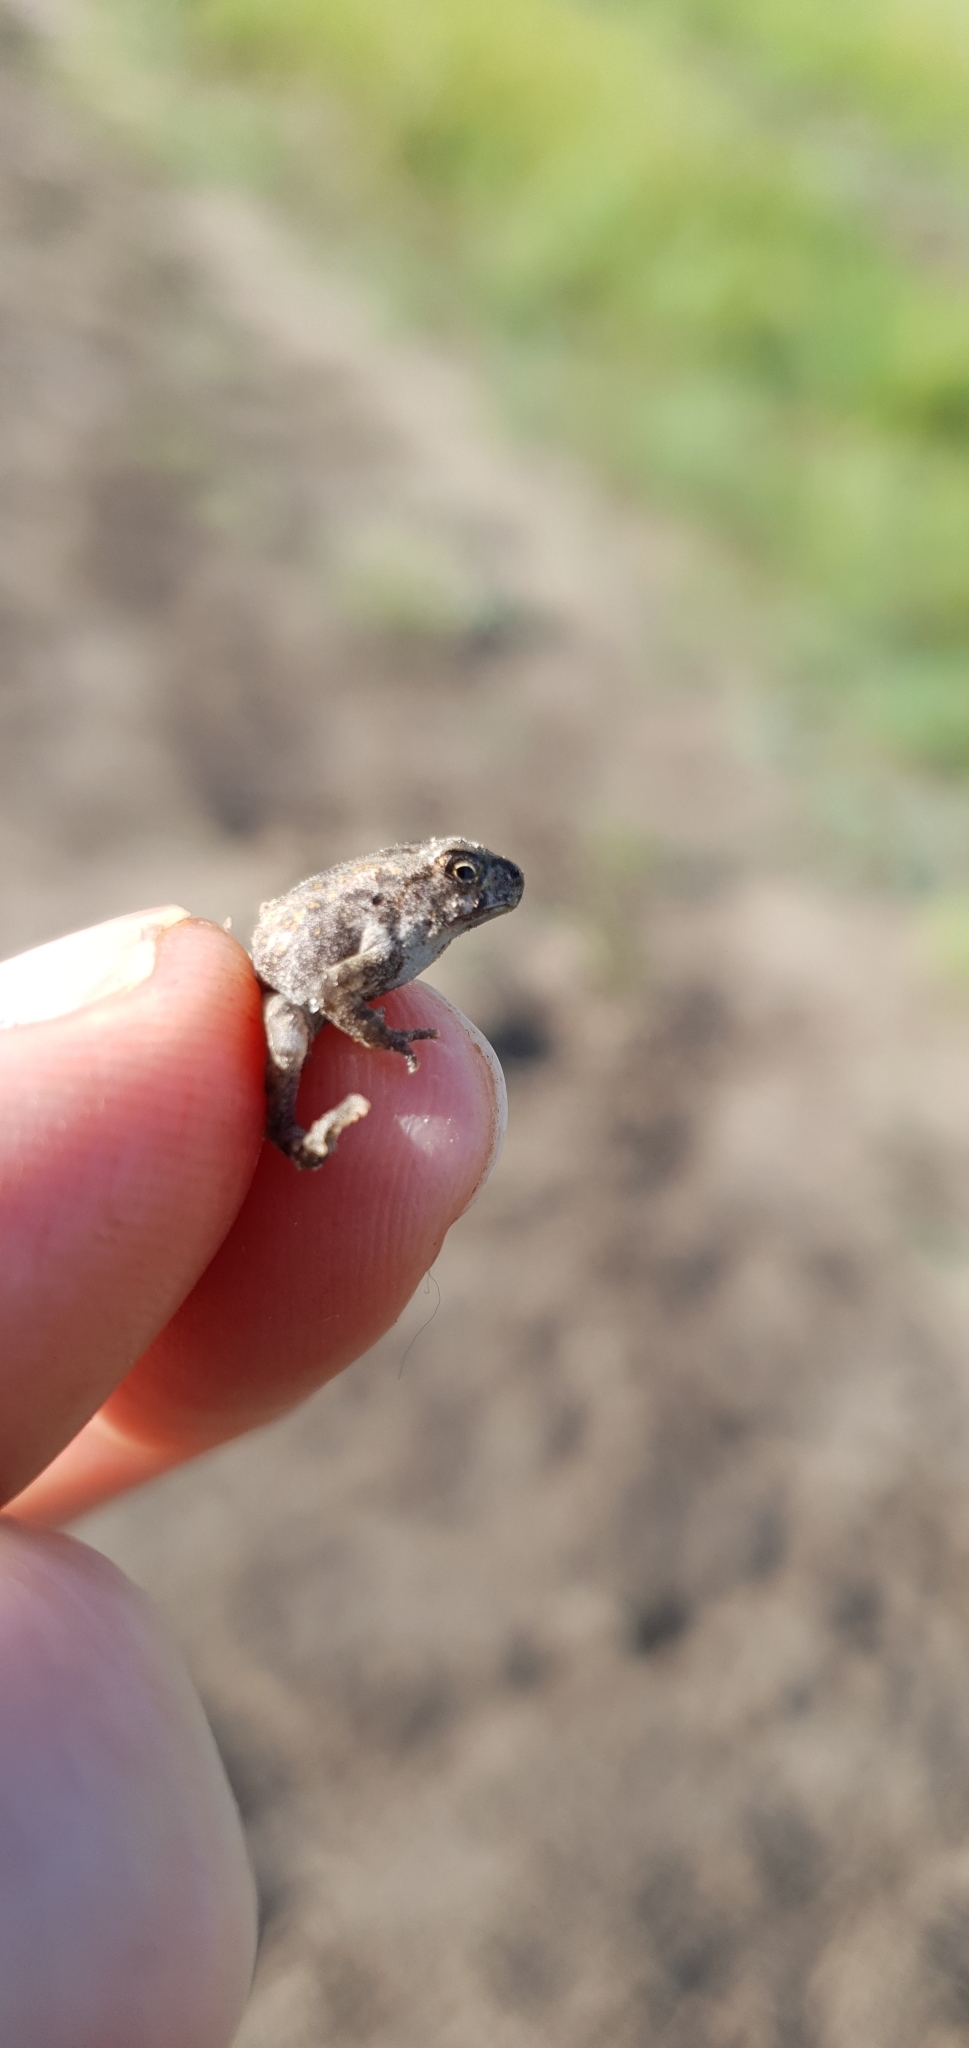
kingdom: Animalia
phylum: Chordata
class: Amphibia
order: Anura
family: Bufonidae
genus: Rhinella
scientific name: Rhinella marina
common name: Cane toad
